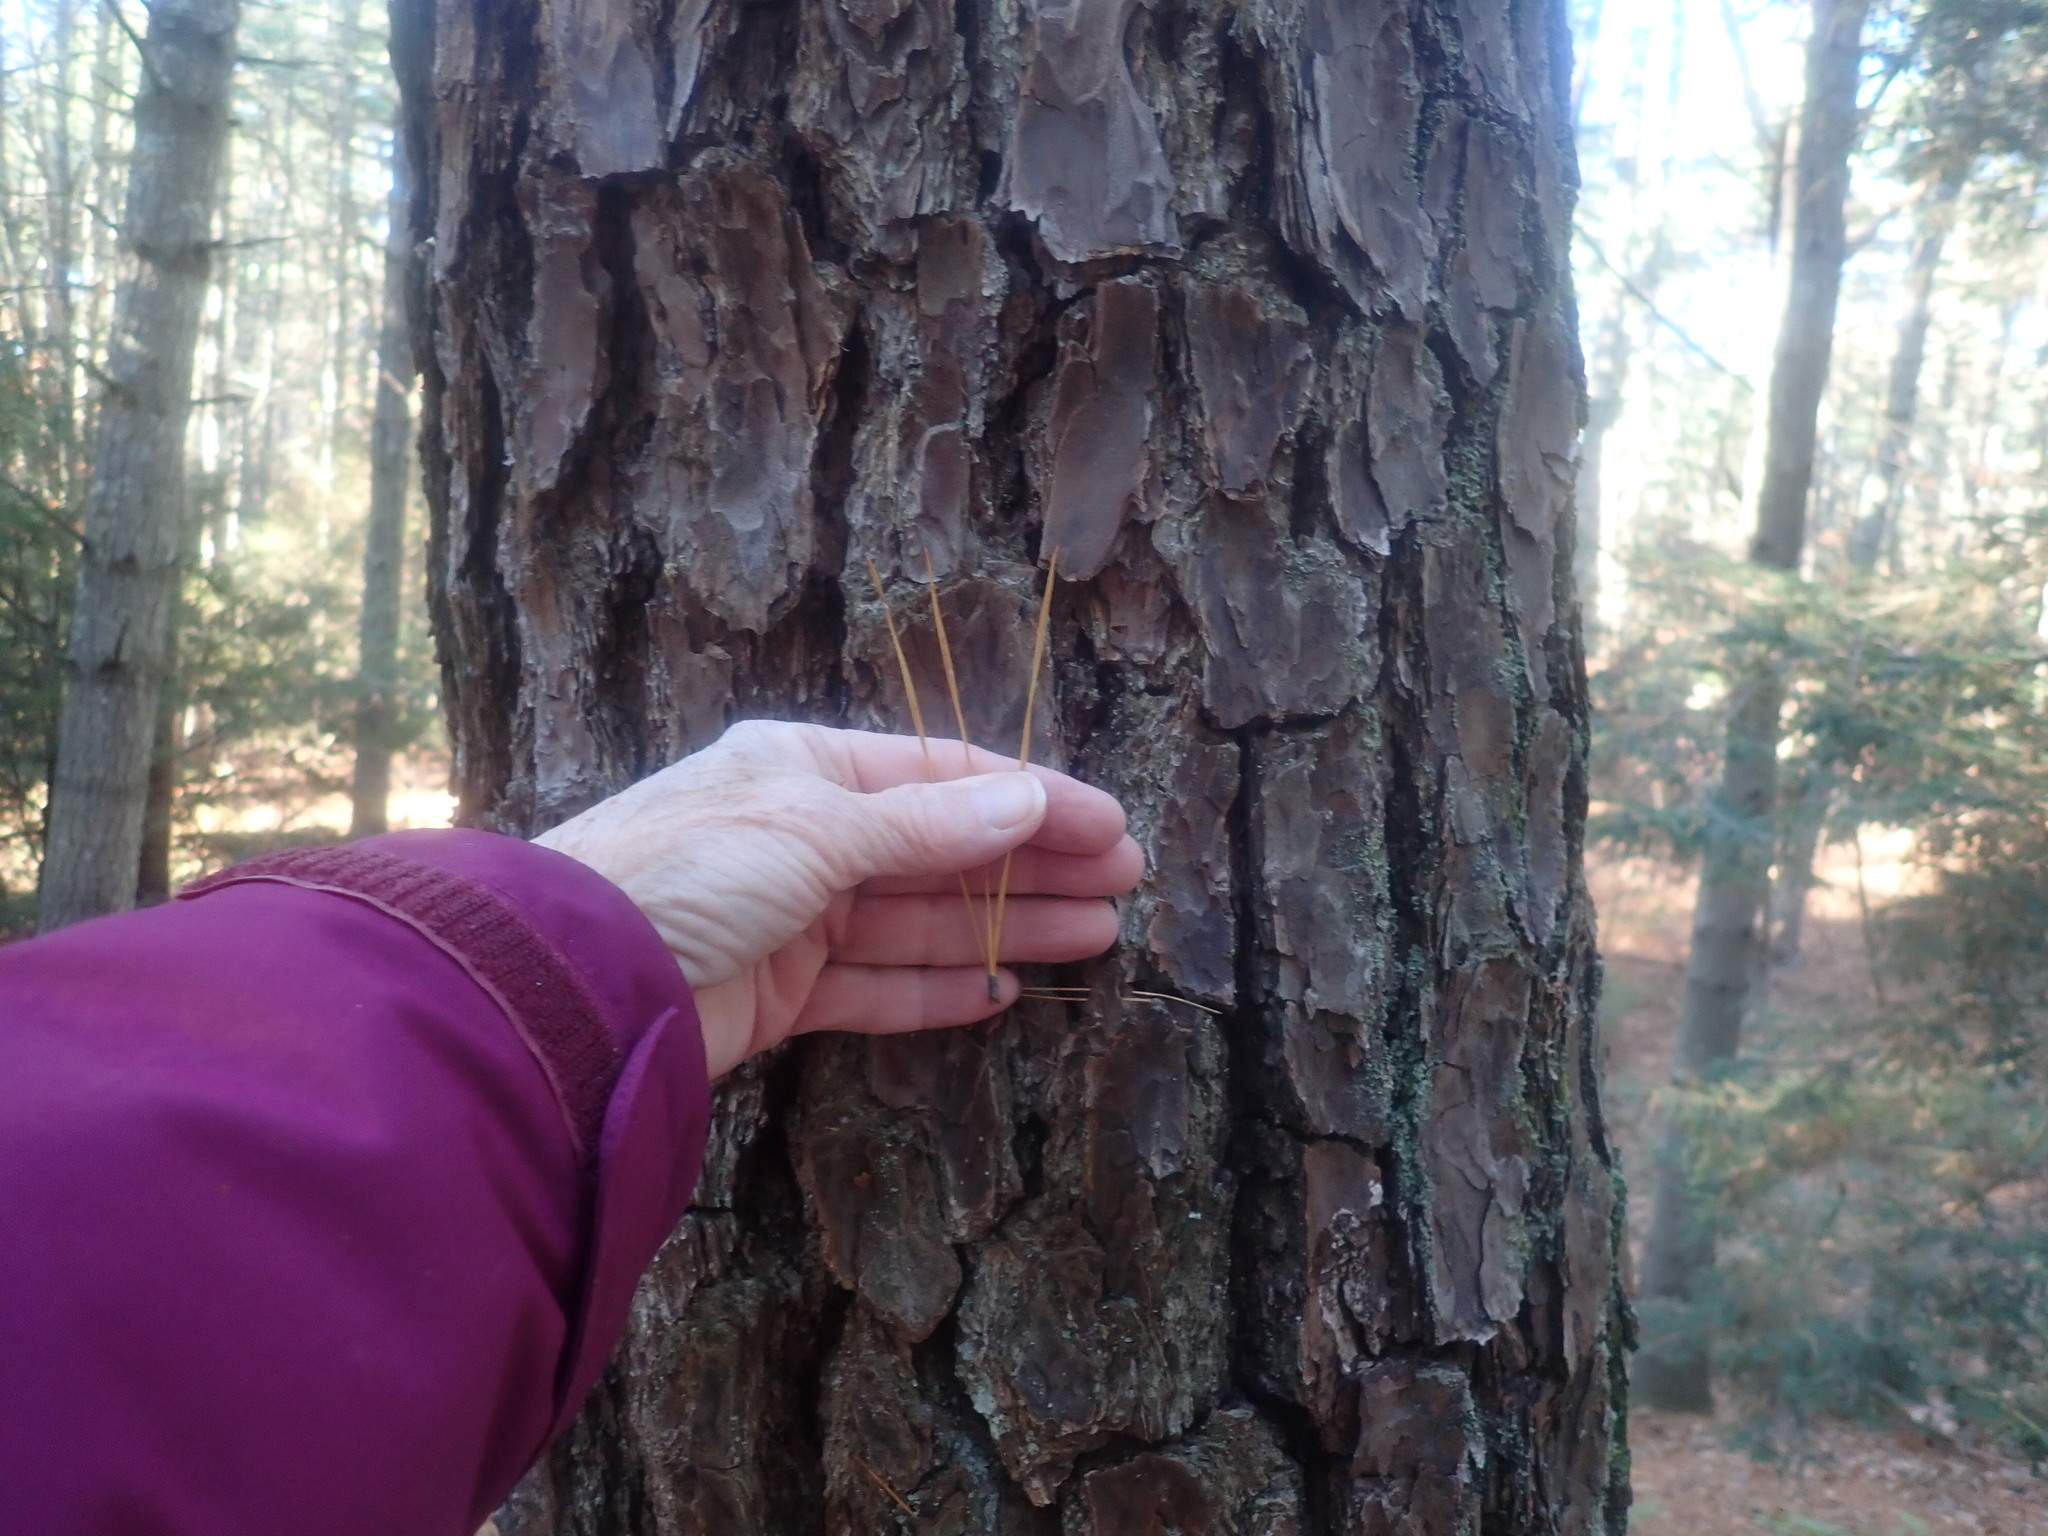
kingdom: Plantae
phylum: Tracheophyta
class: Pinopsida
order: Pinales
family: Pinaceae
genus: Pinus
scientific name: Pinus rigida
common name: Pitch pine
